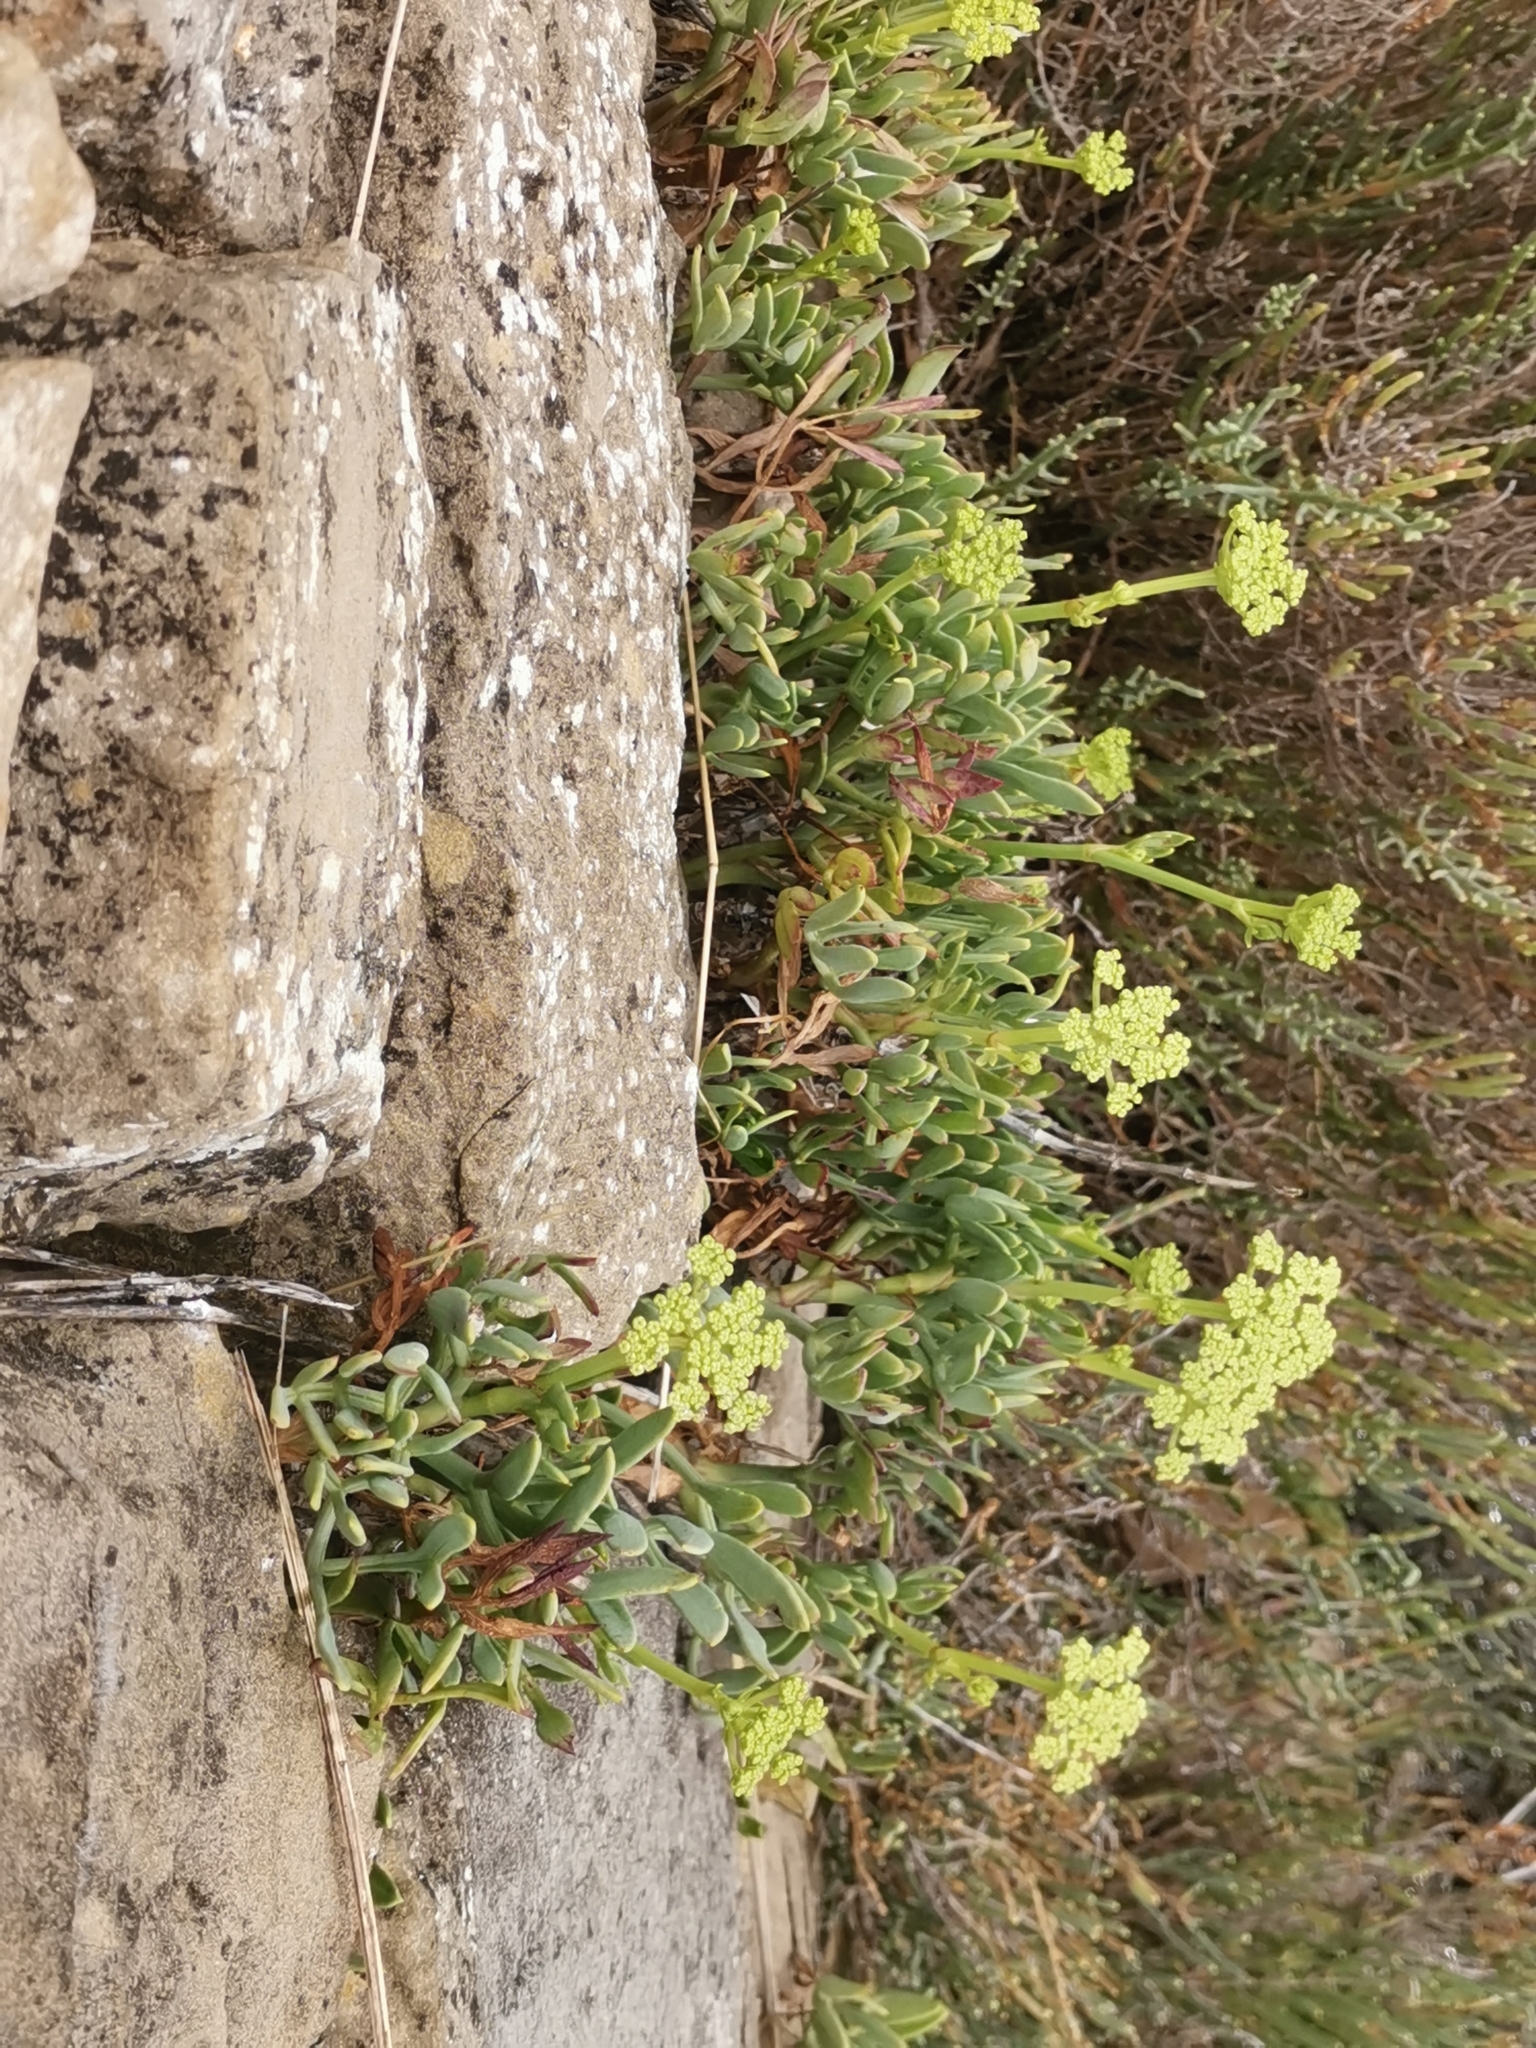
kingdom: Plantae
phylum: Tracheophyta
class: Magnoliopsida
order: Apiales
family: Apiaceae
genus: Crithmum
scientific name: Crithmum maritimum
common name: Rock samphire
